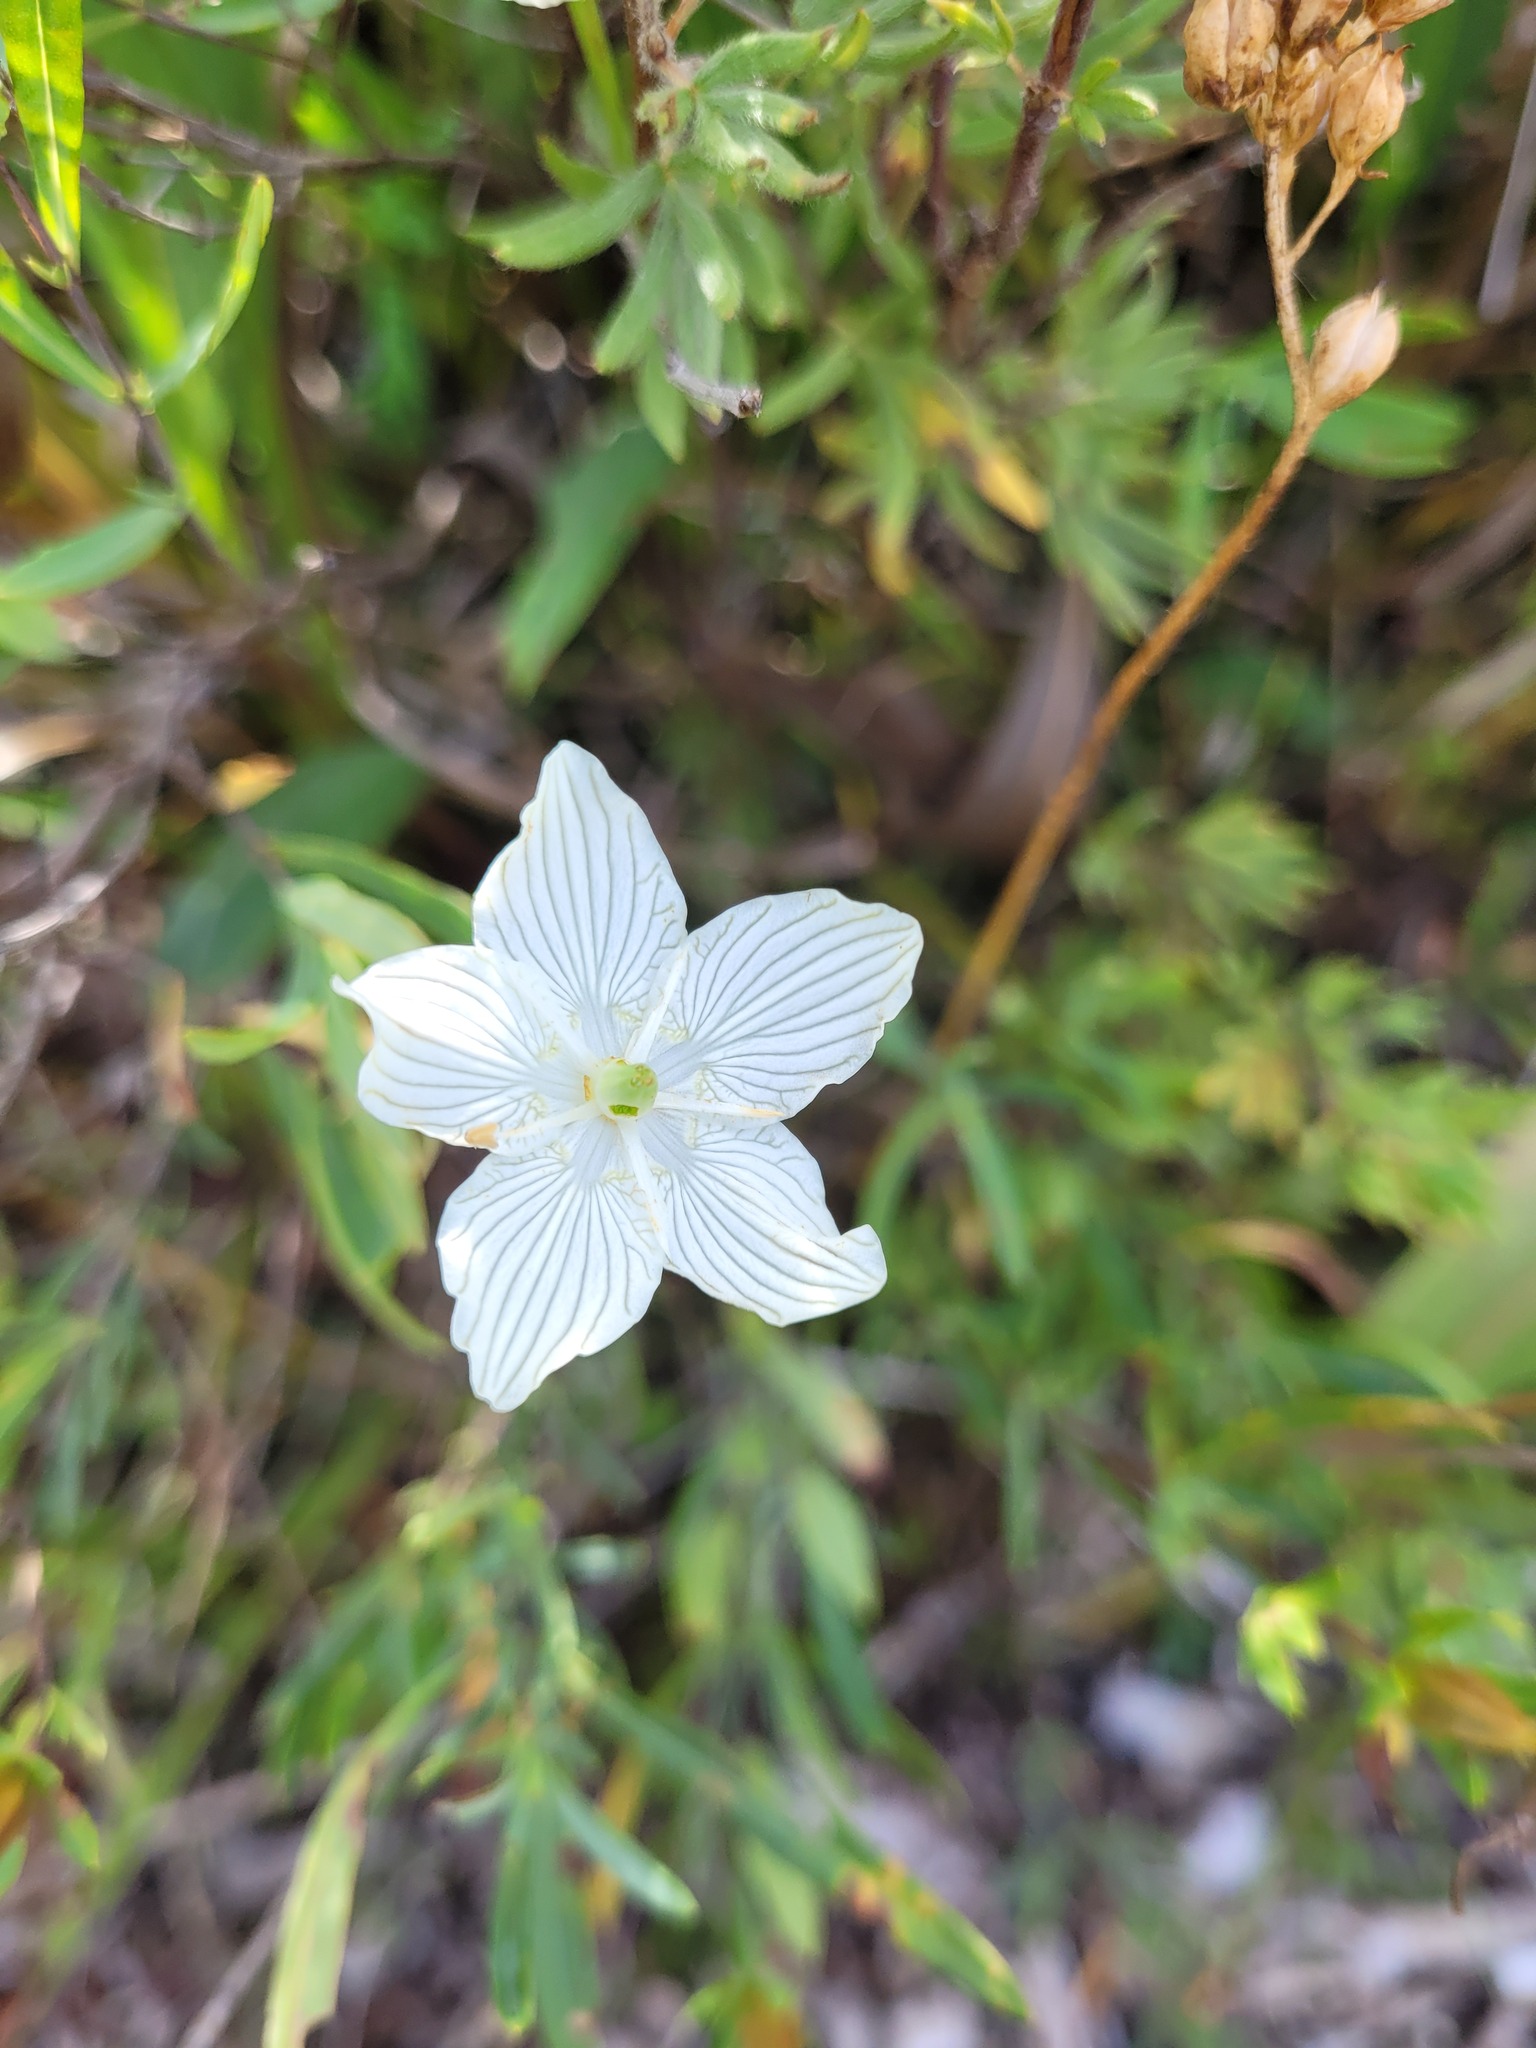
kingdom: Plantae
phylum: Tracheophyta
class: Magnoliopsida
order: Celastrales
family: Parnassiaceae
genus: Parnassia
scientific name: Parnassia glauca
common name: American grass-of-parnassus
